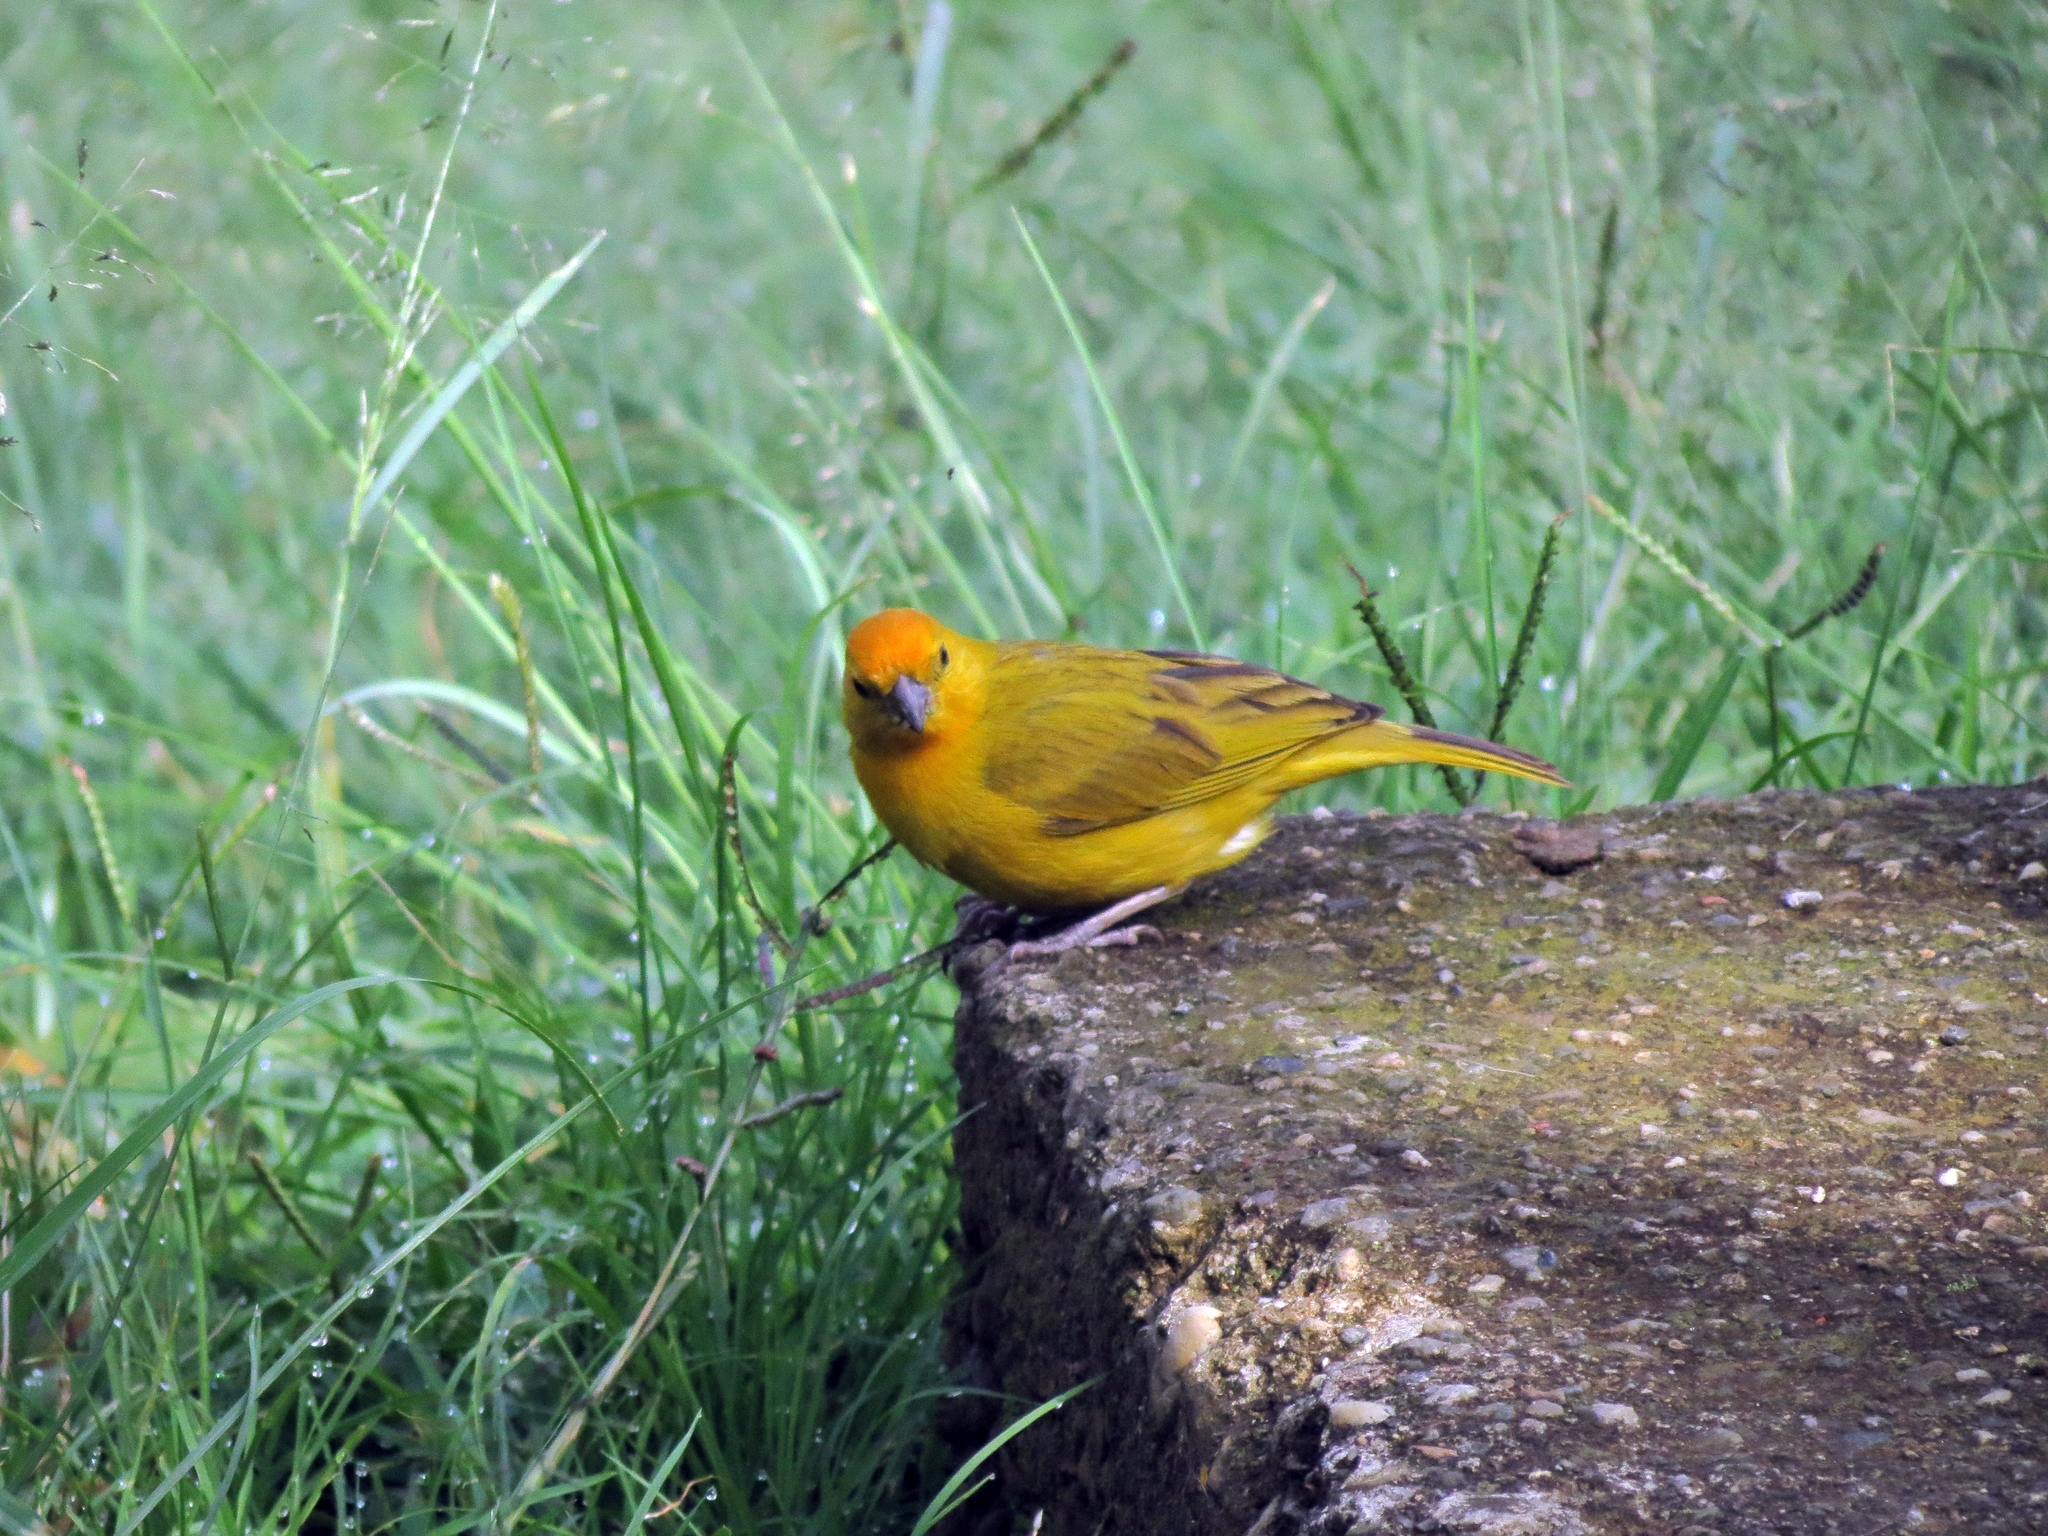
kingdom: Animalia
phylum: Chordata
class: Aves
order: Passeriformes
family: Thraupidae
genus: Sicalis
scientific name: Sicalis flaveola
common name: Saffron finch
